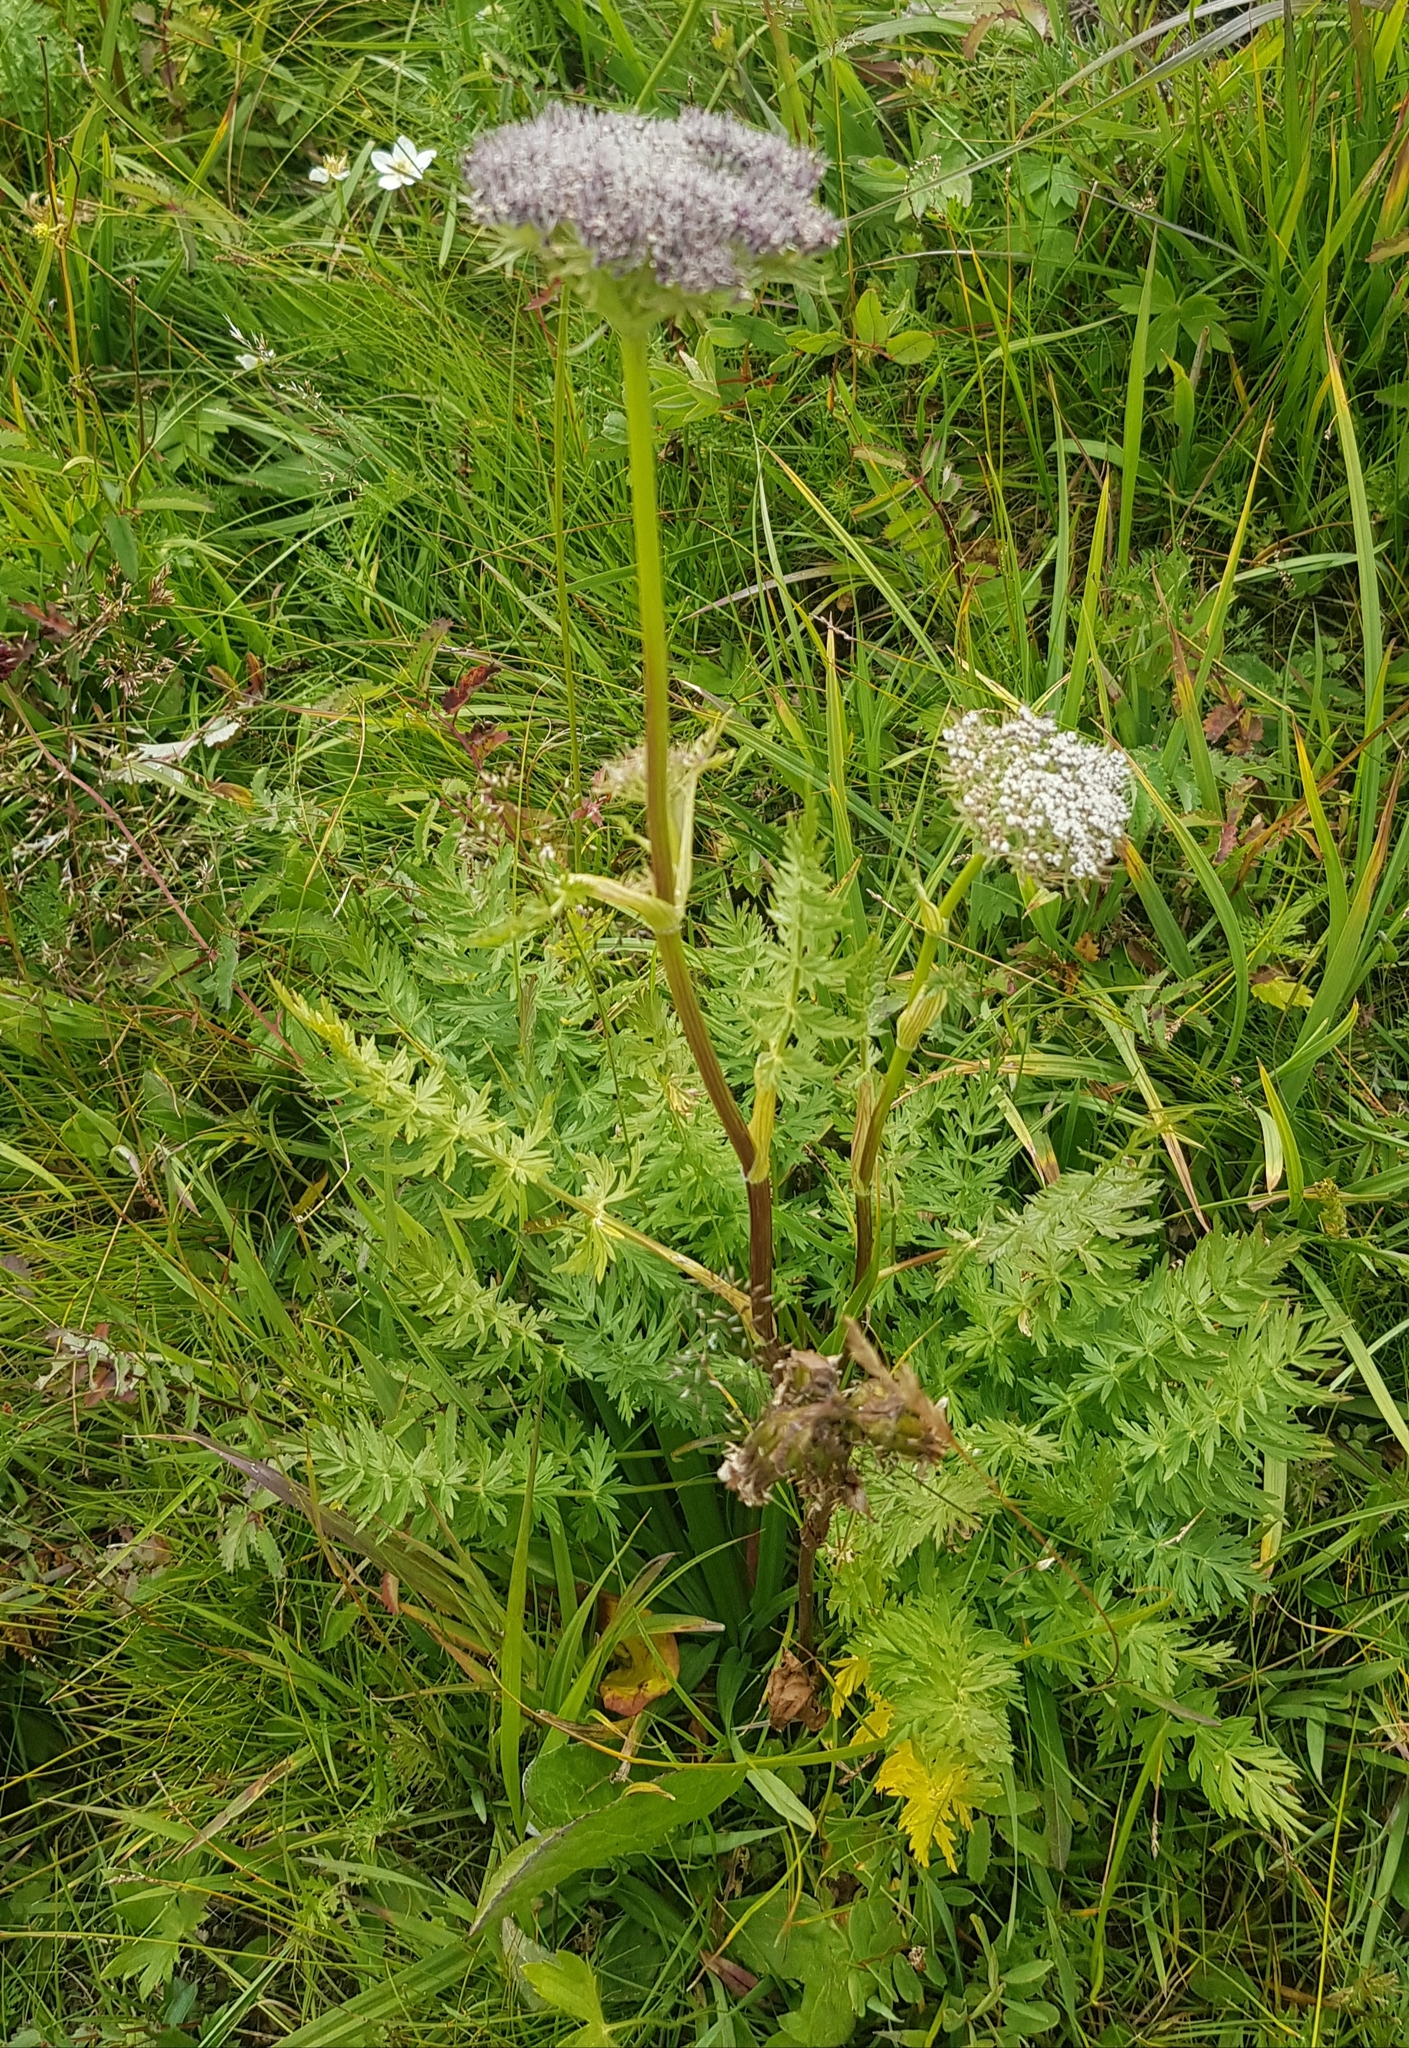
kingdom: Plantae
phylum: Tracheophyta
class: Magnoliopsida
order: Apiales
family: Apiaceae
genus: Seseli
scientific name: Seseli condensatum
